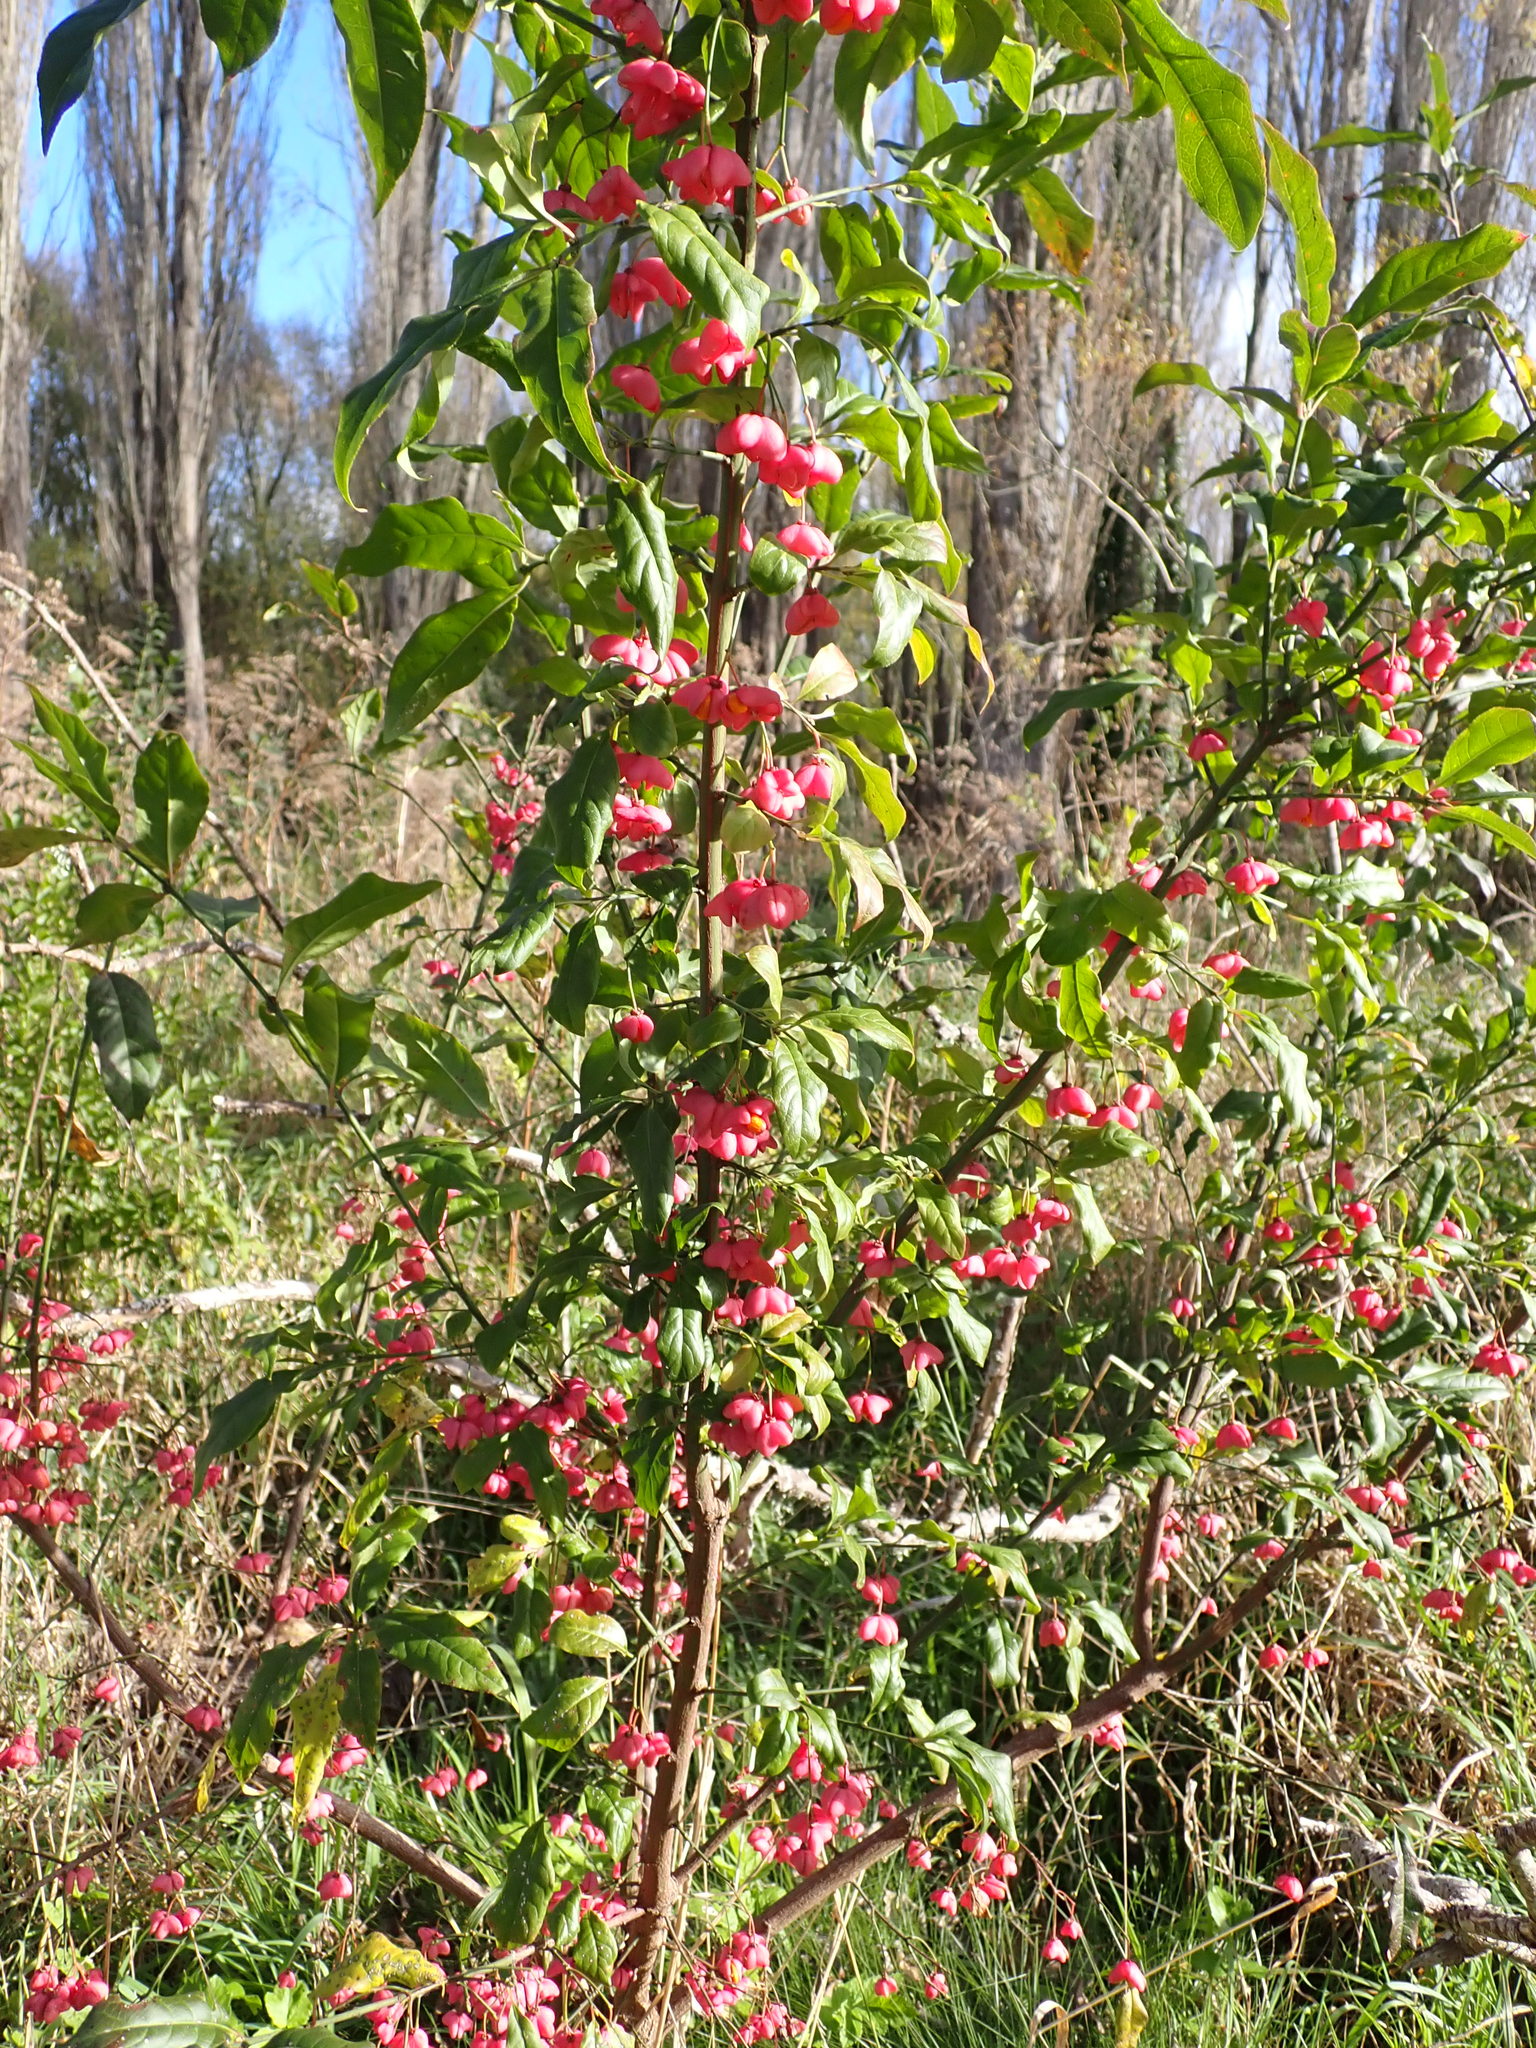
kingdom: Plantae
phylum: Tracheophyta
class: Magnoliopsida
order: Celastrales
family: Celastraceae
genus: Euonymus
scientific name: Euonymus europaeus
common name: Spindle
